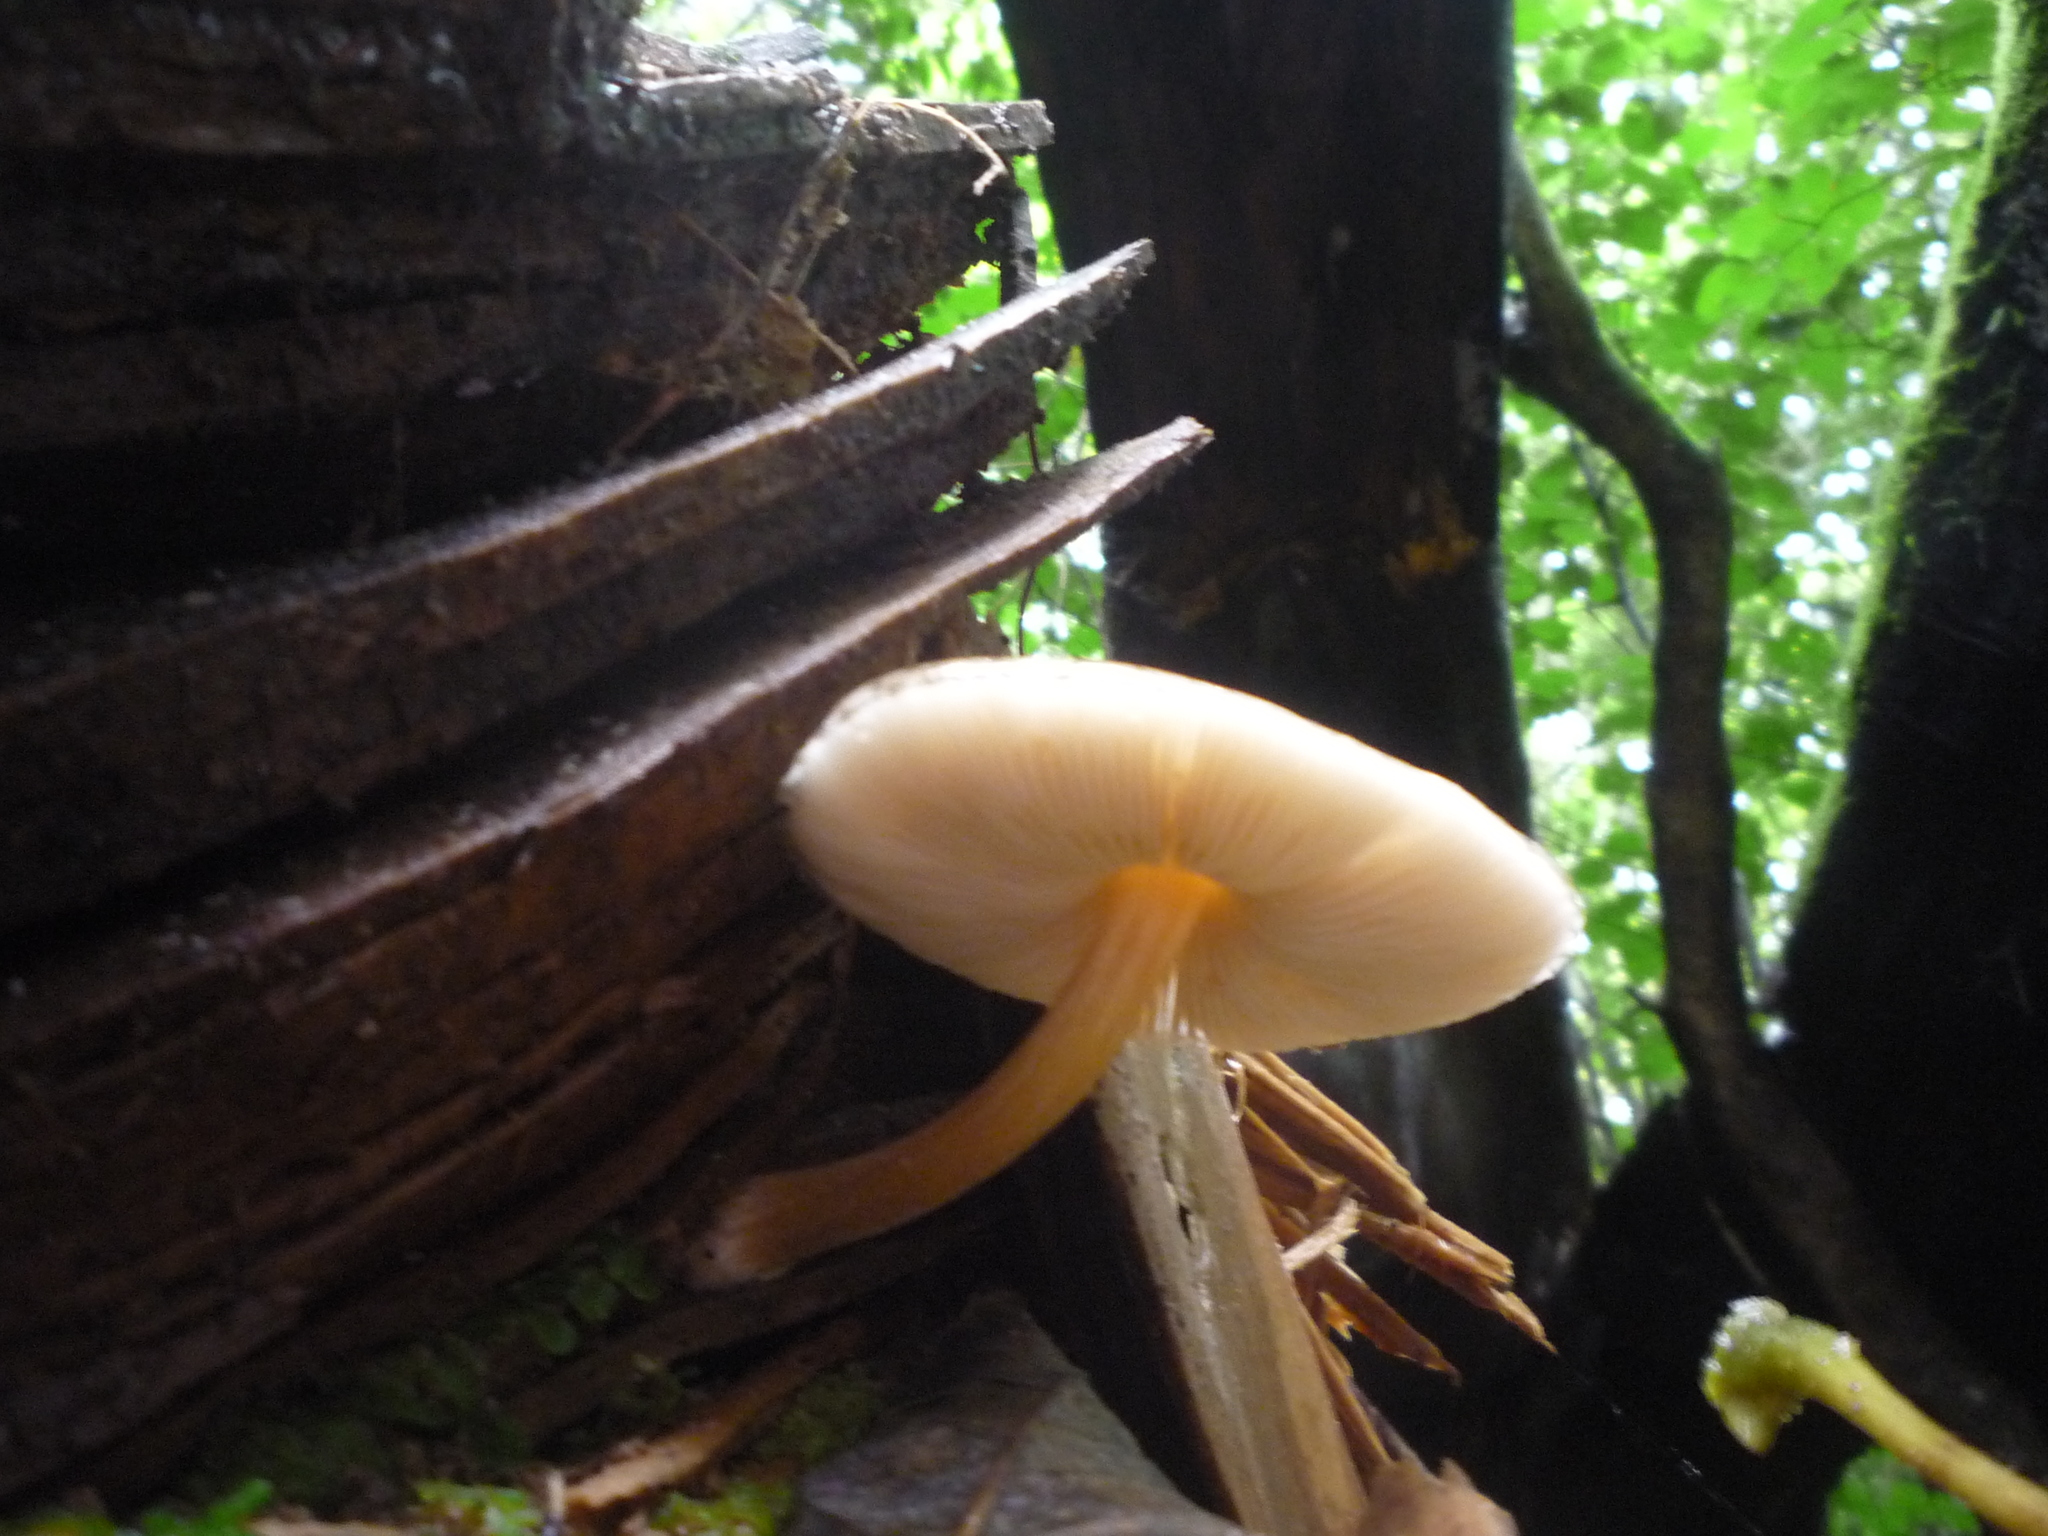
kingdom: Fungi
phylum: Basidiomycota
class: Agaricomycetes
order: Agaricales
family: Bolbitiaceae
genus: Bolbitius
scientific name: Bolbitius muscicola
